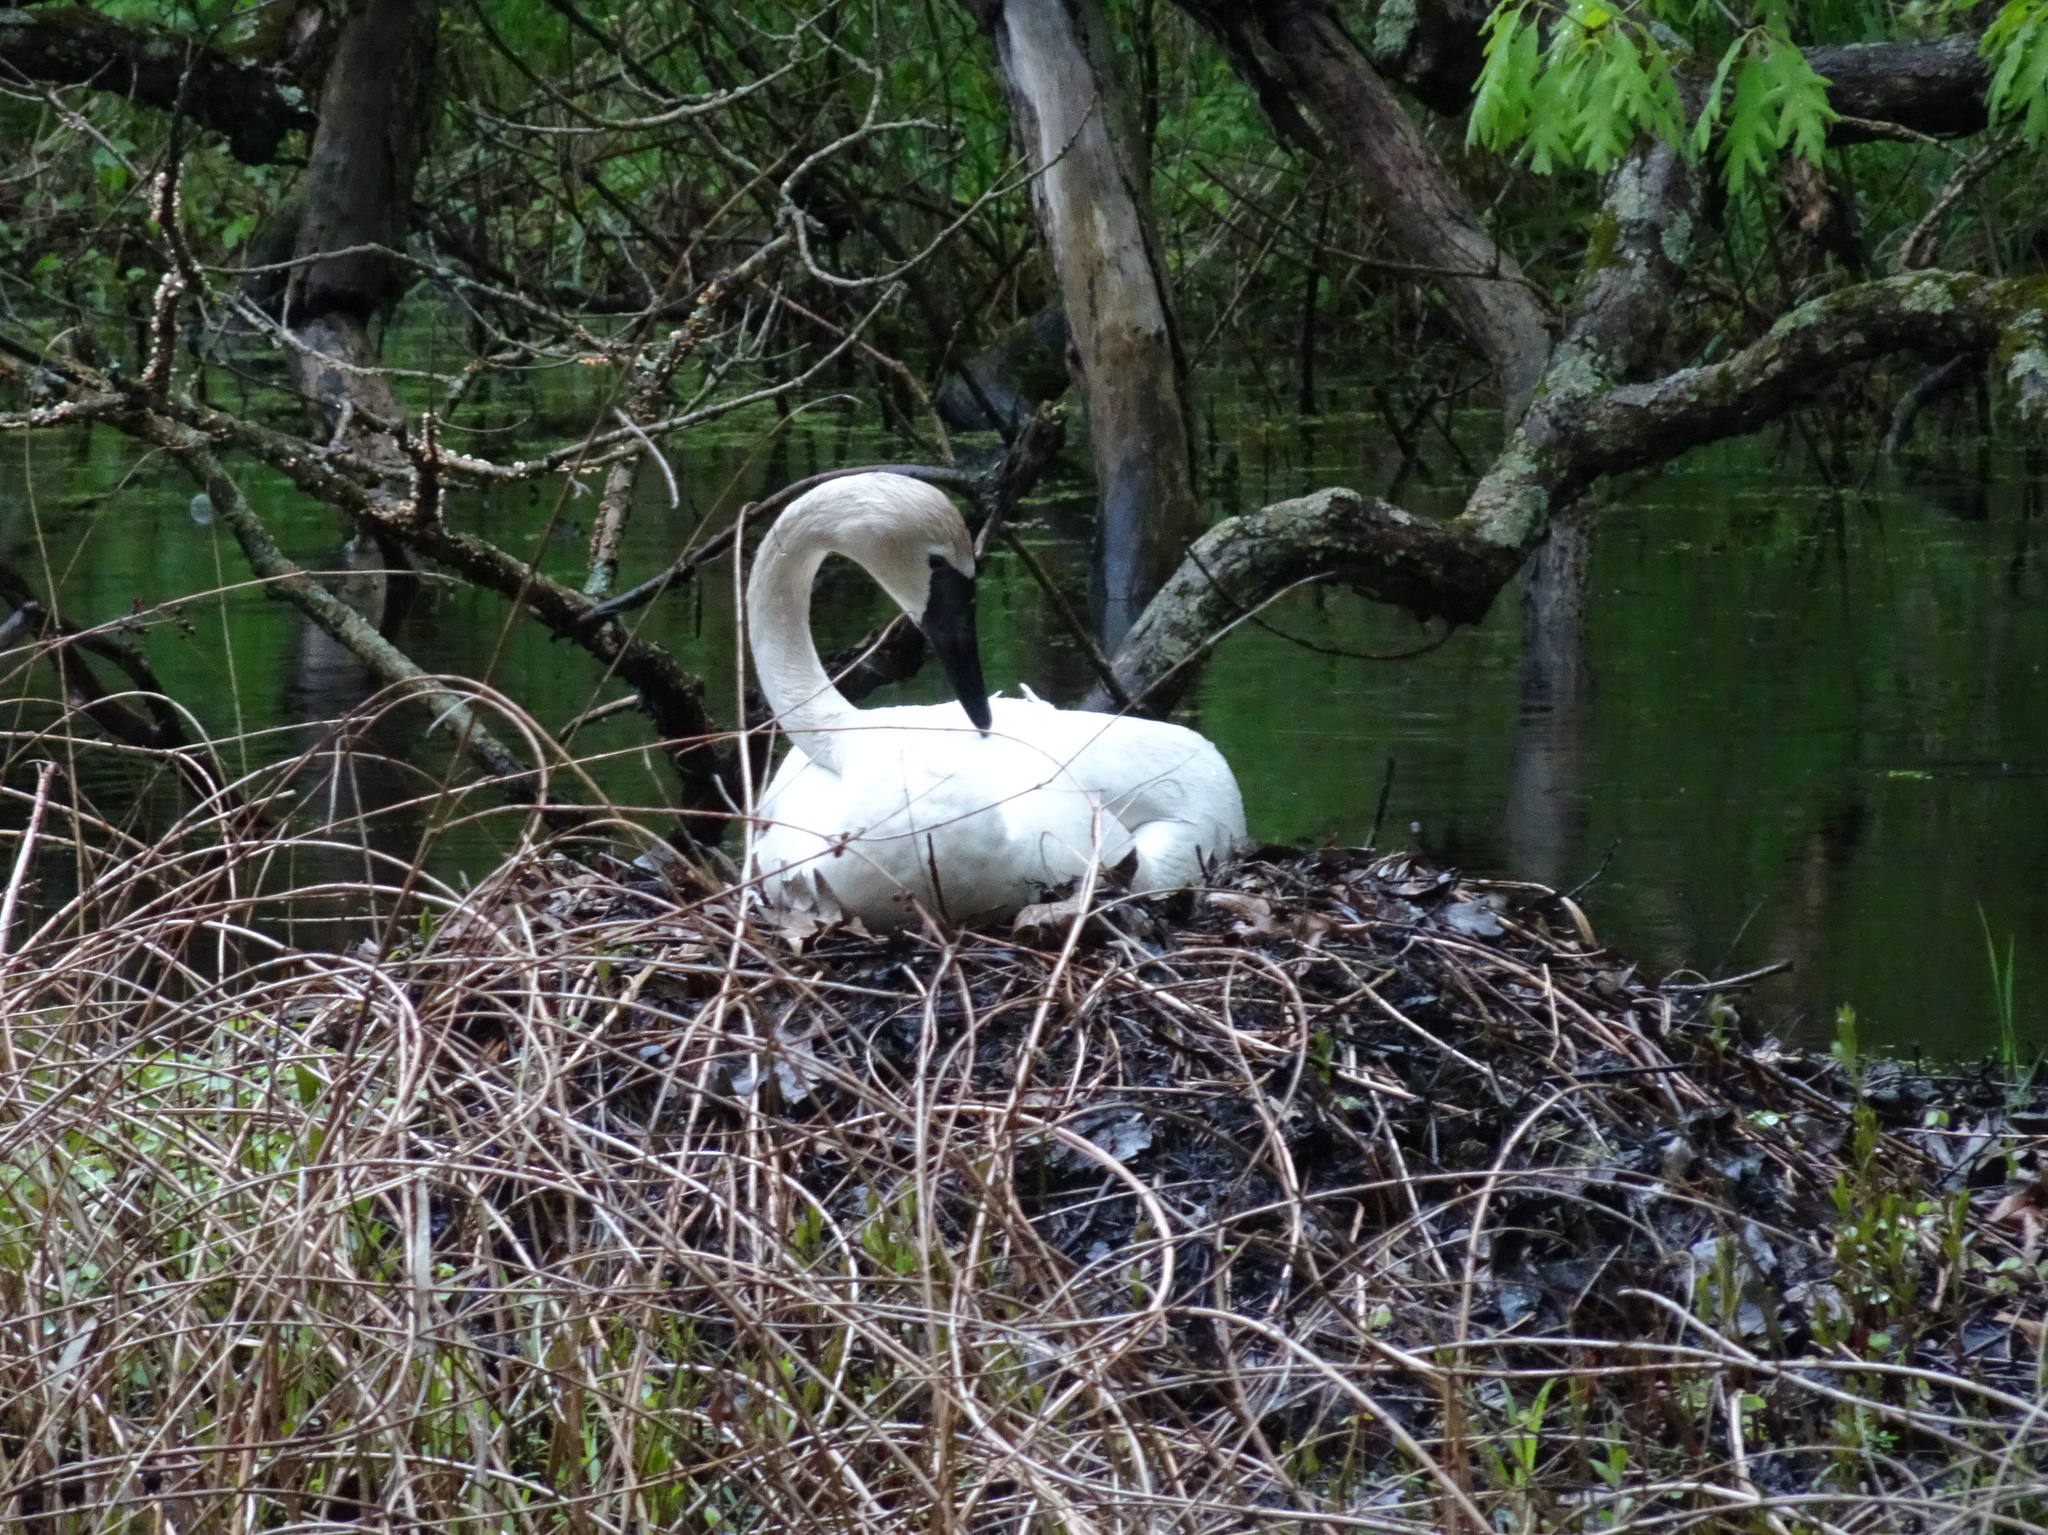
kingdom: Animalia
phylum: Chordata
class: Aves
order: Anseriformes
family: Anatidae
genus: Cygnus
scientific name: Cygnus buccinator
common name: Trumpeter swan
